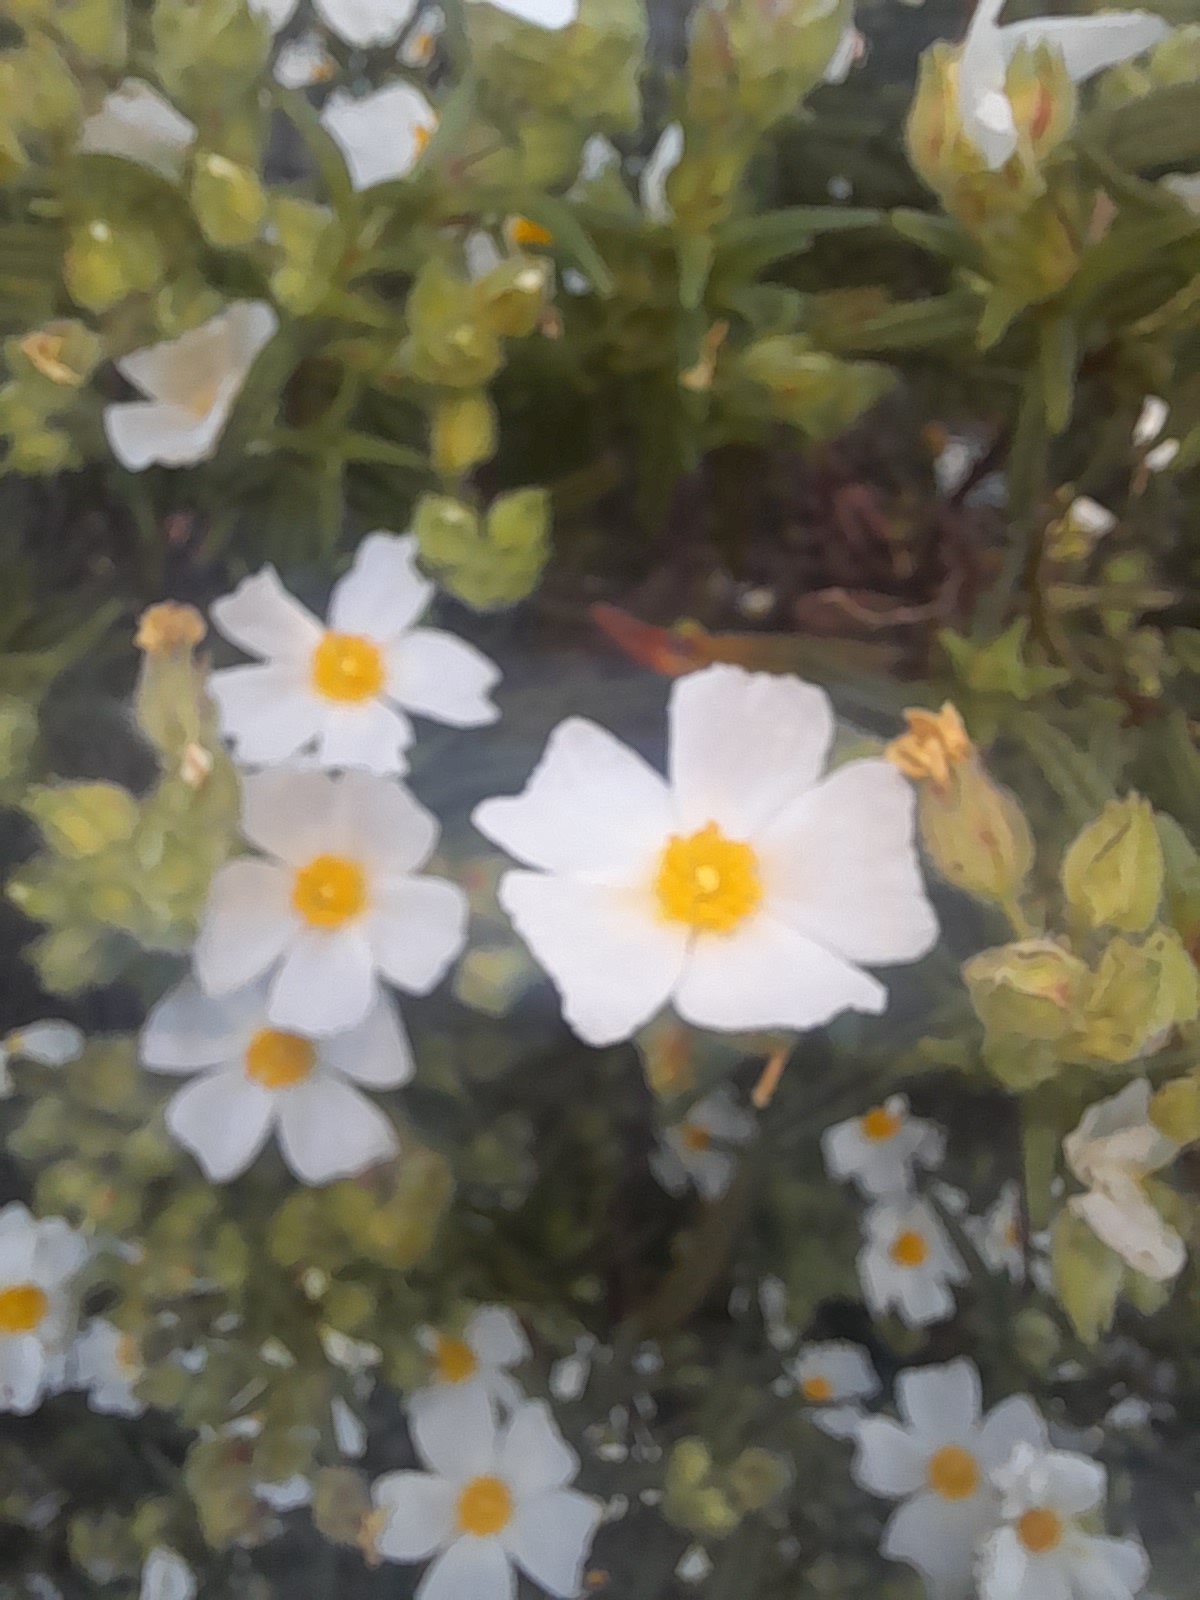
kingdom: Plantae
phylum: Tracheophyta
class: Magnoliopsida
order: Malvales
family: Cistaceae
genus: Cistus
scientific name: Cistus monspeliensis
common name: Montpelier cistus
